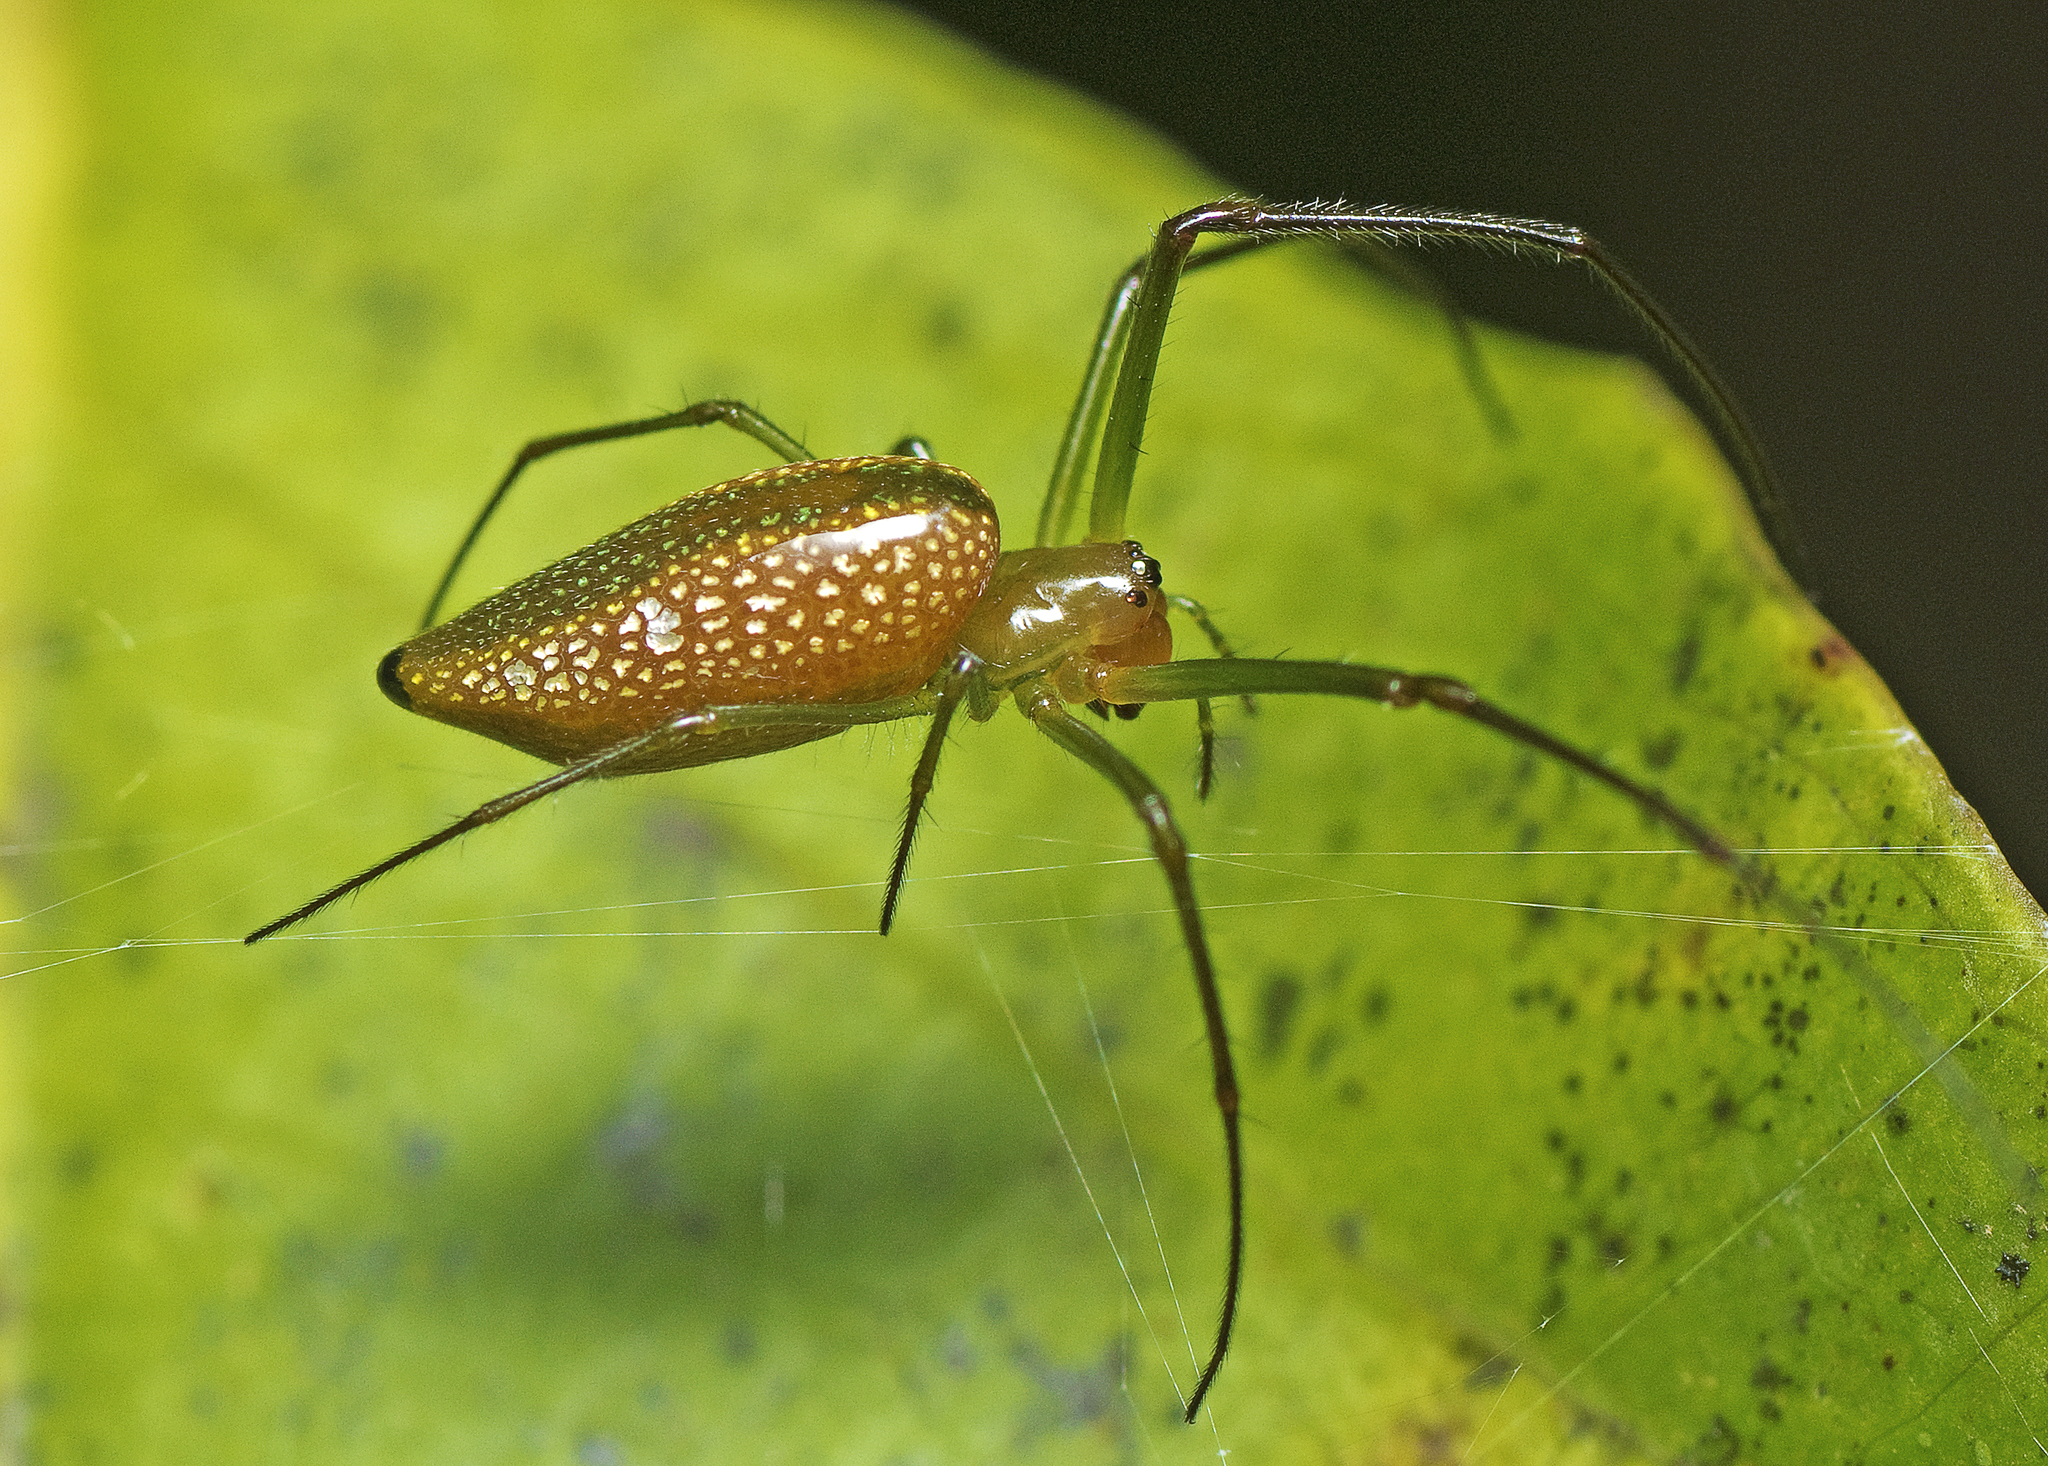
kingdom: Animalia
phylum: Arthropoda
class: Arachnida
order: Araneae
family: Tetragnathidae
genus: Mesida
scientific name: Mesida argentiopunctata
